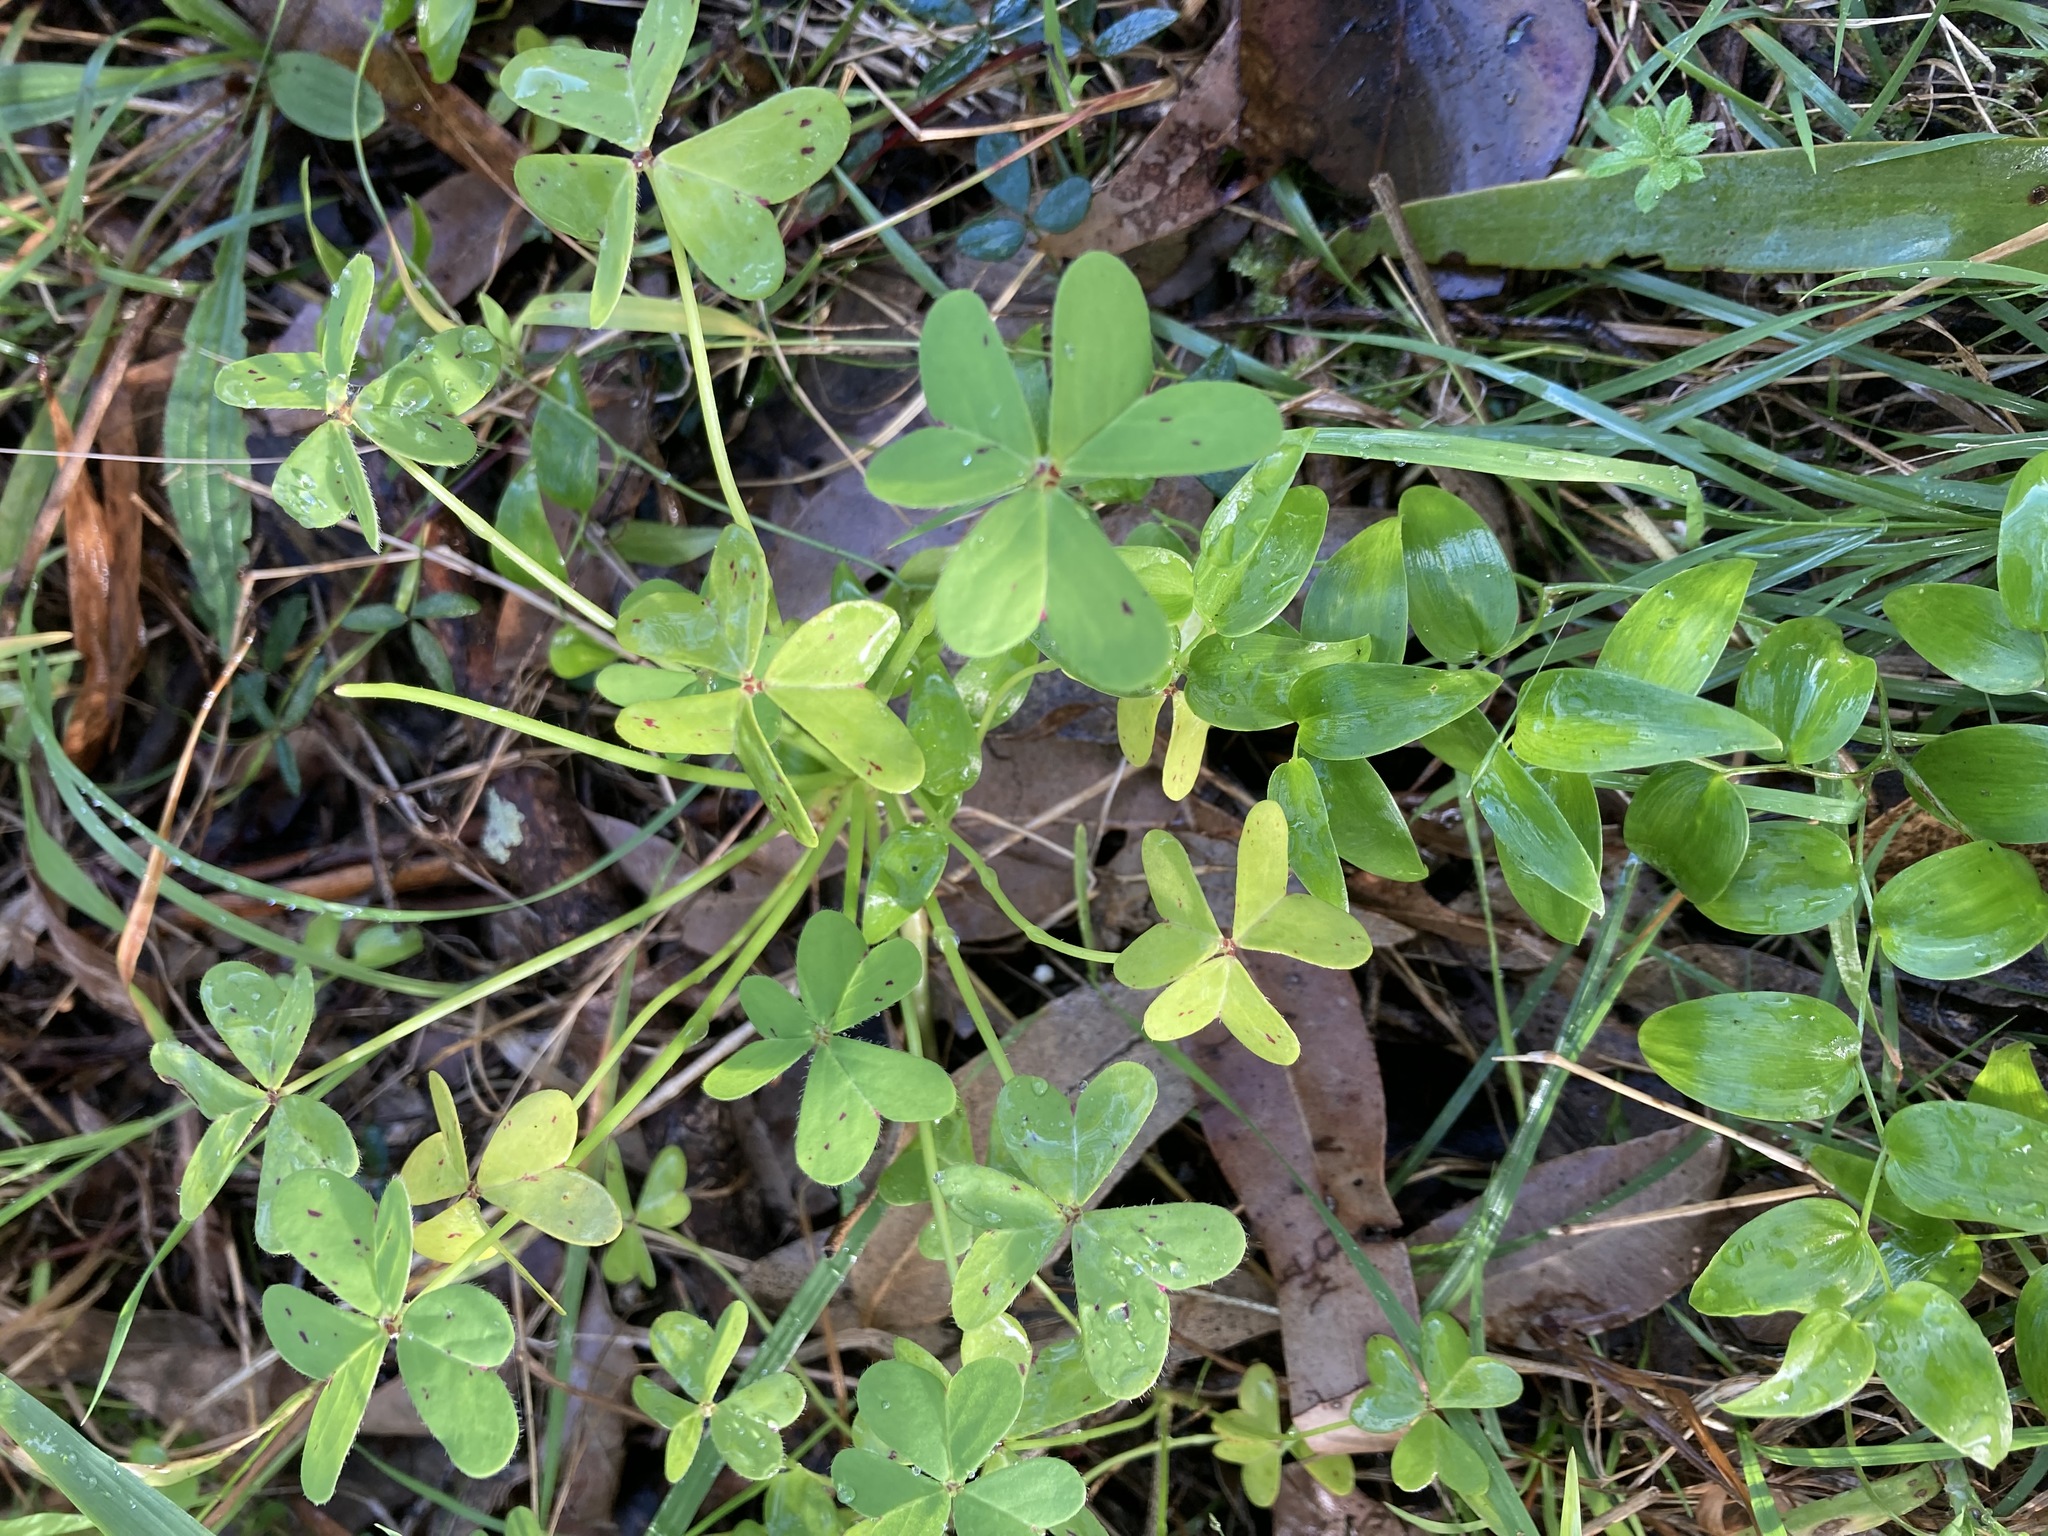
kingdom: Plantae
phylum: Tracheophyta
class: Magnoliopsida
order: Oxalidales
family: Oxalidaceae
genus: Oxalis
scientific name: Oxalis pes-caprae
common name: Bermuda-buttercup
